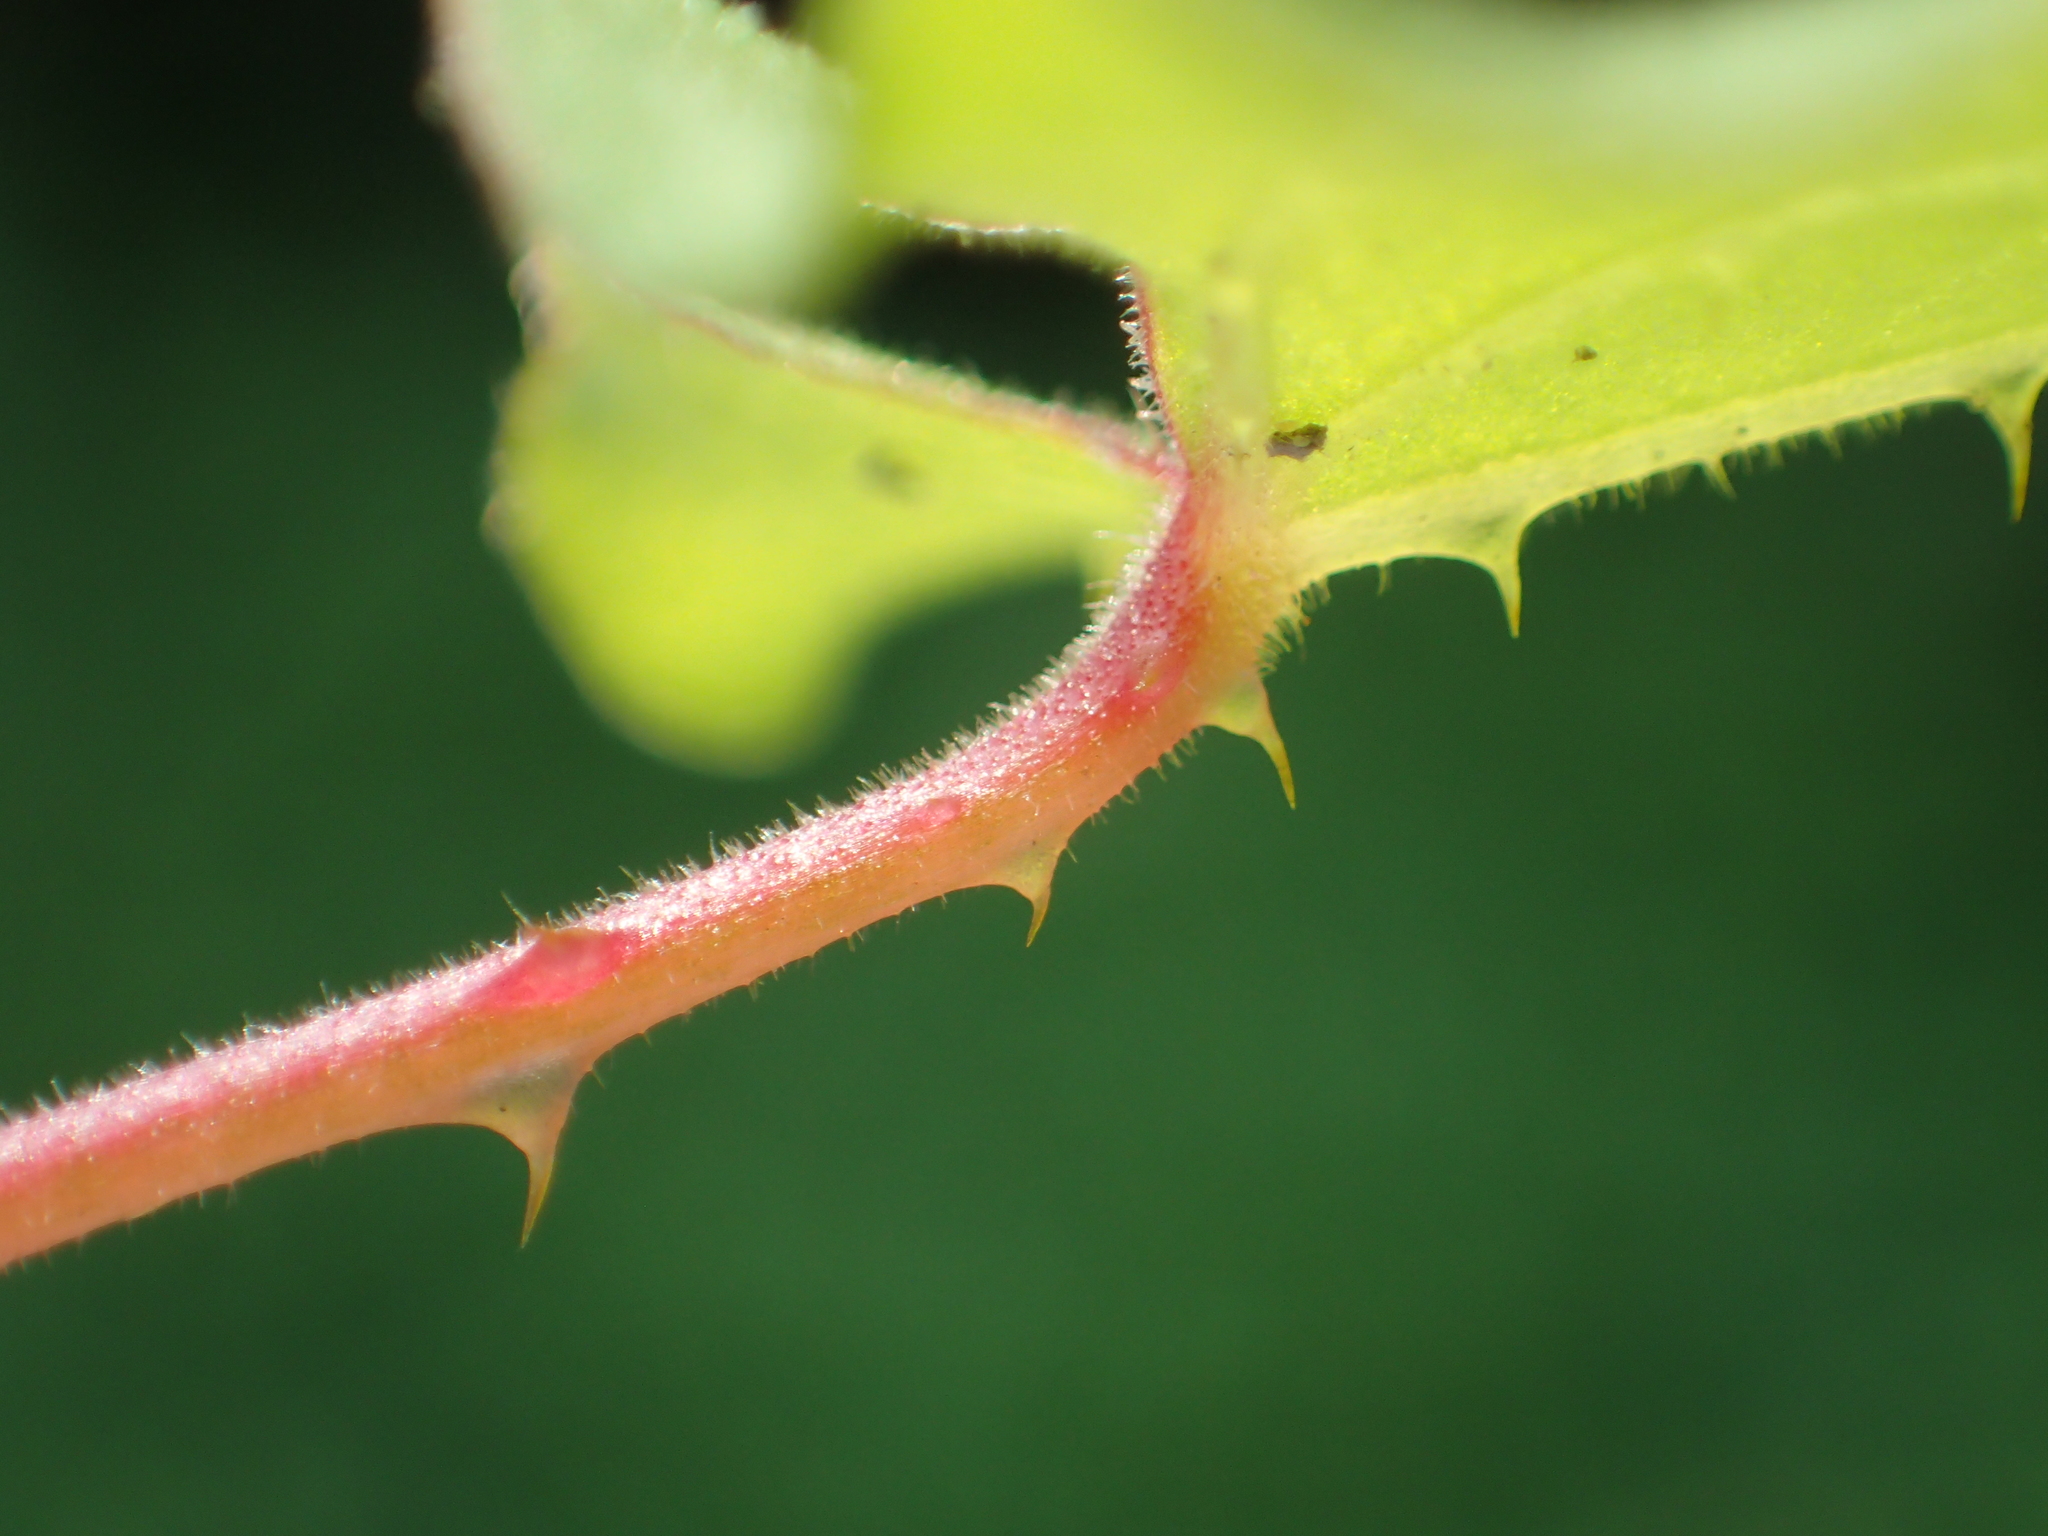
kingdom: Plantae
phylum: Tracheophyta
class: Magnoliopsida
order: Caryophyllales
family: Polygonaceae
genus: Persicaria
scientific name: Persicaria senticosa
